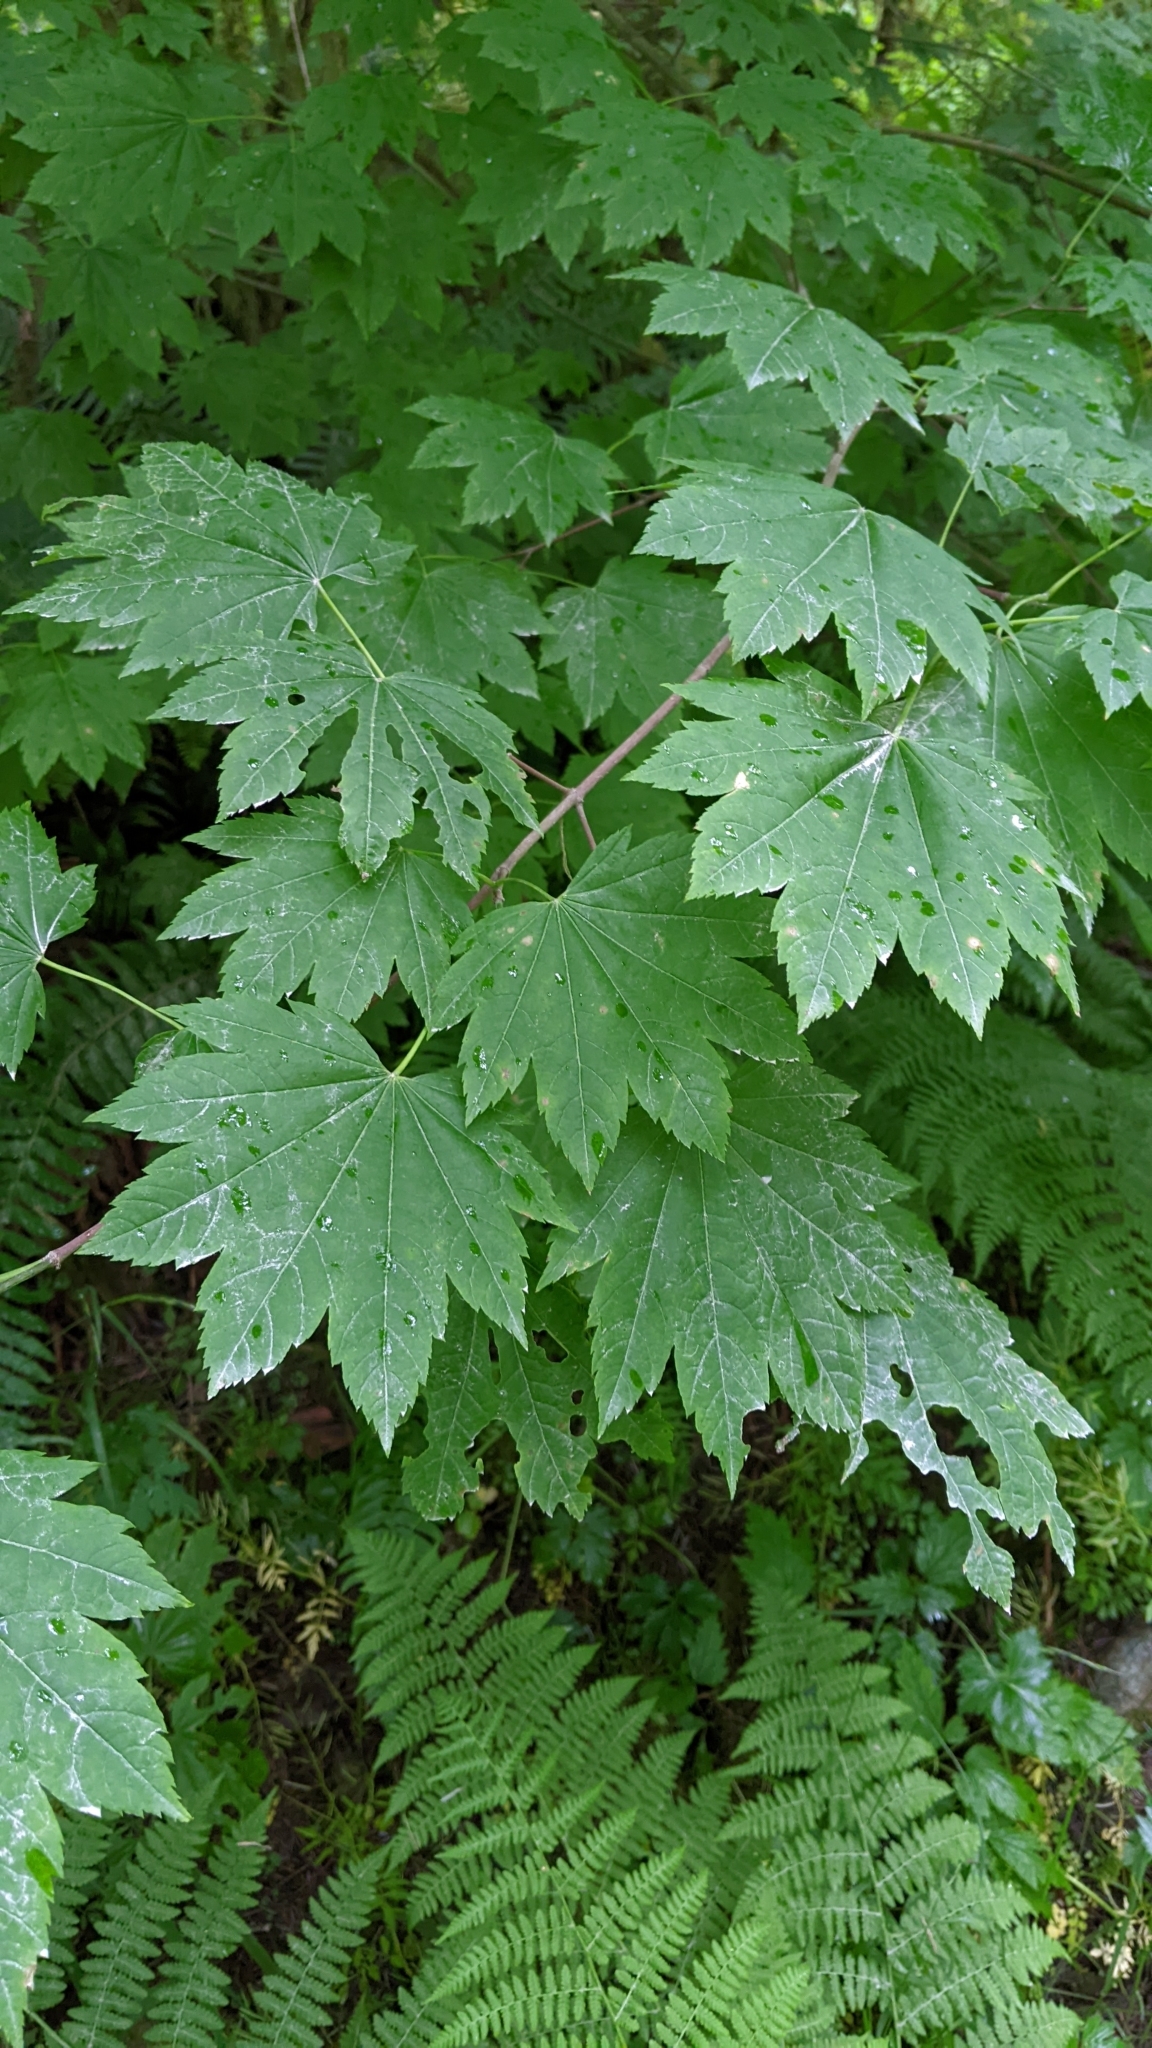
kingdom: Plantae
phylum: Tracheophyta
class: Magnoliopsida
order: Sapindales
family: Sapindaceae
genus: Acer
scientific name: Acer circinatum
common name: Vine maple
